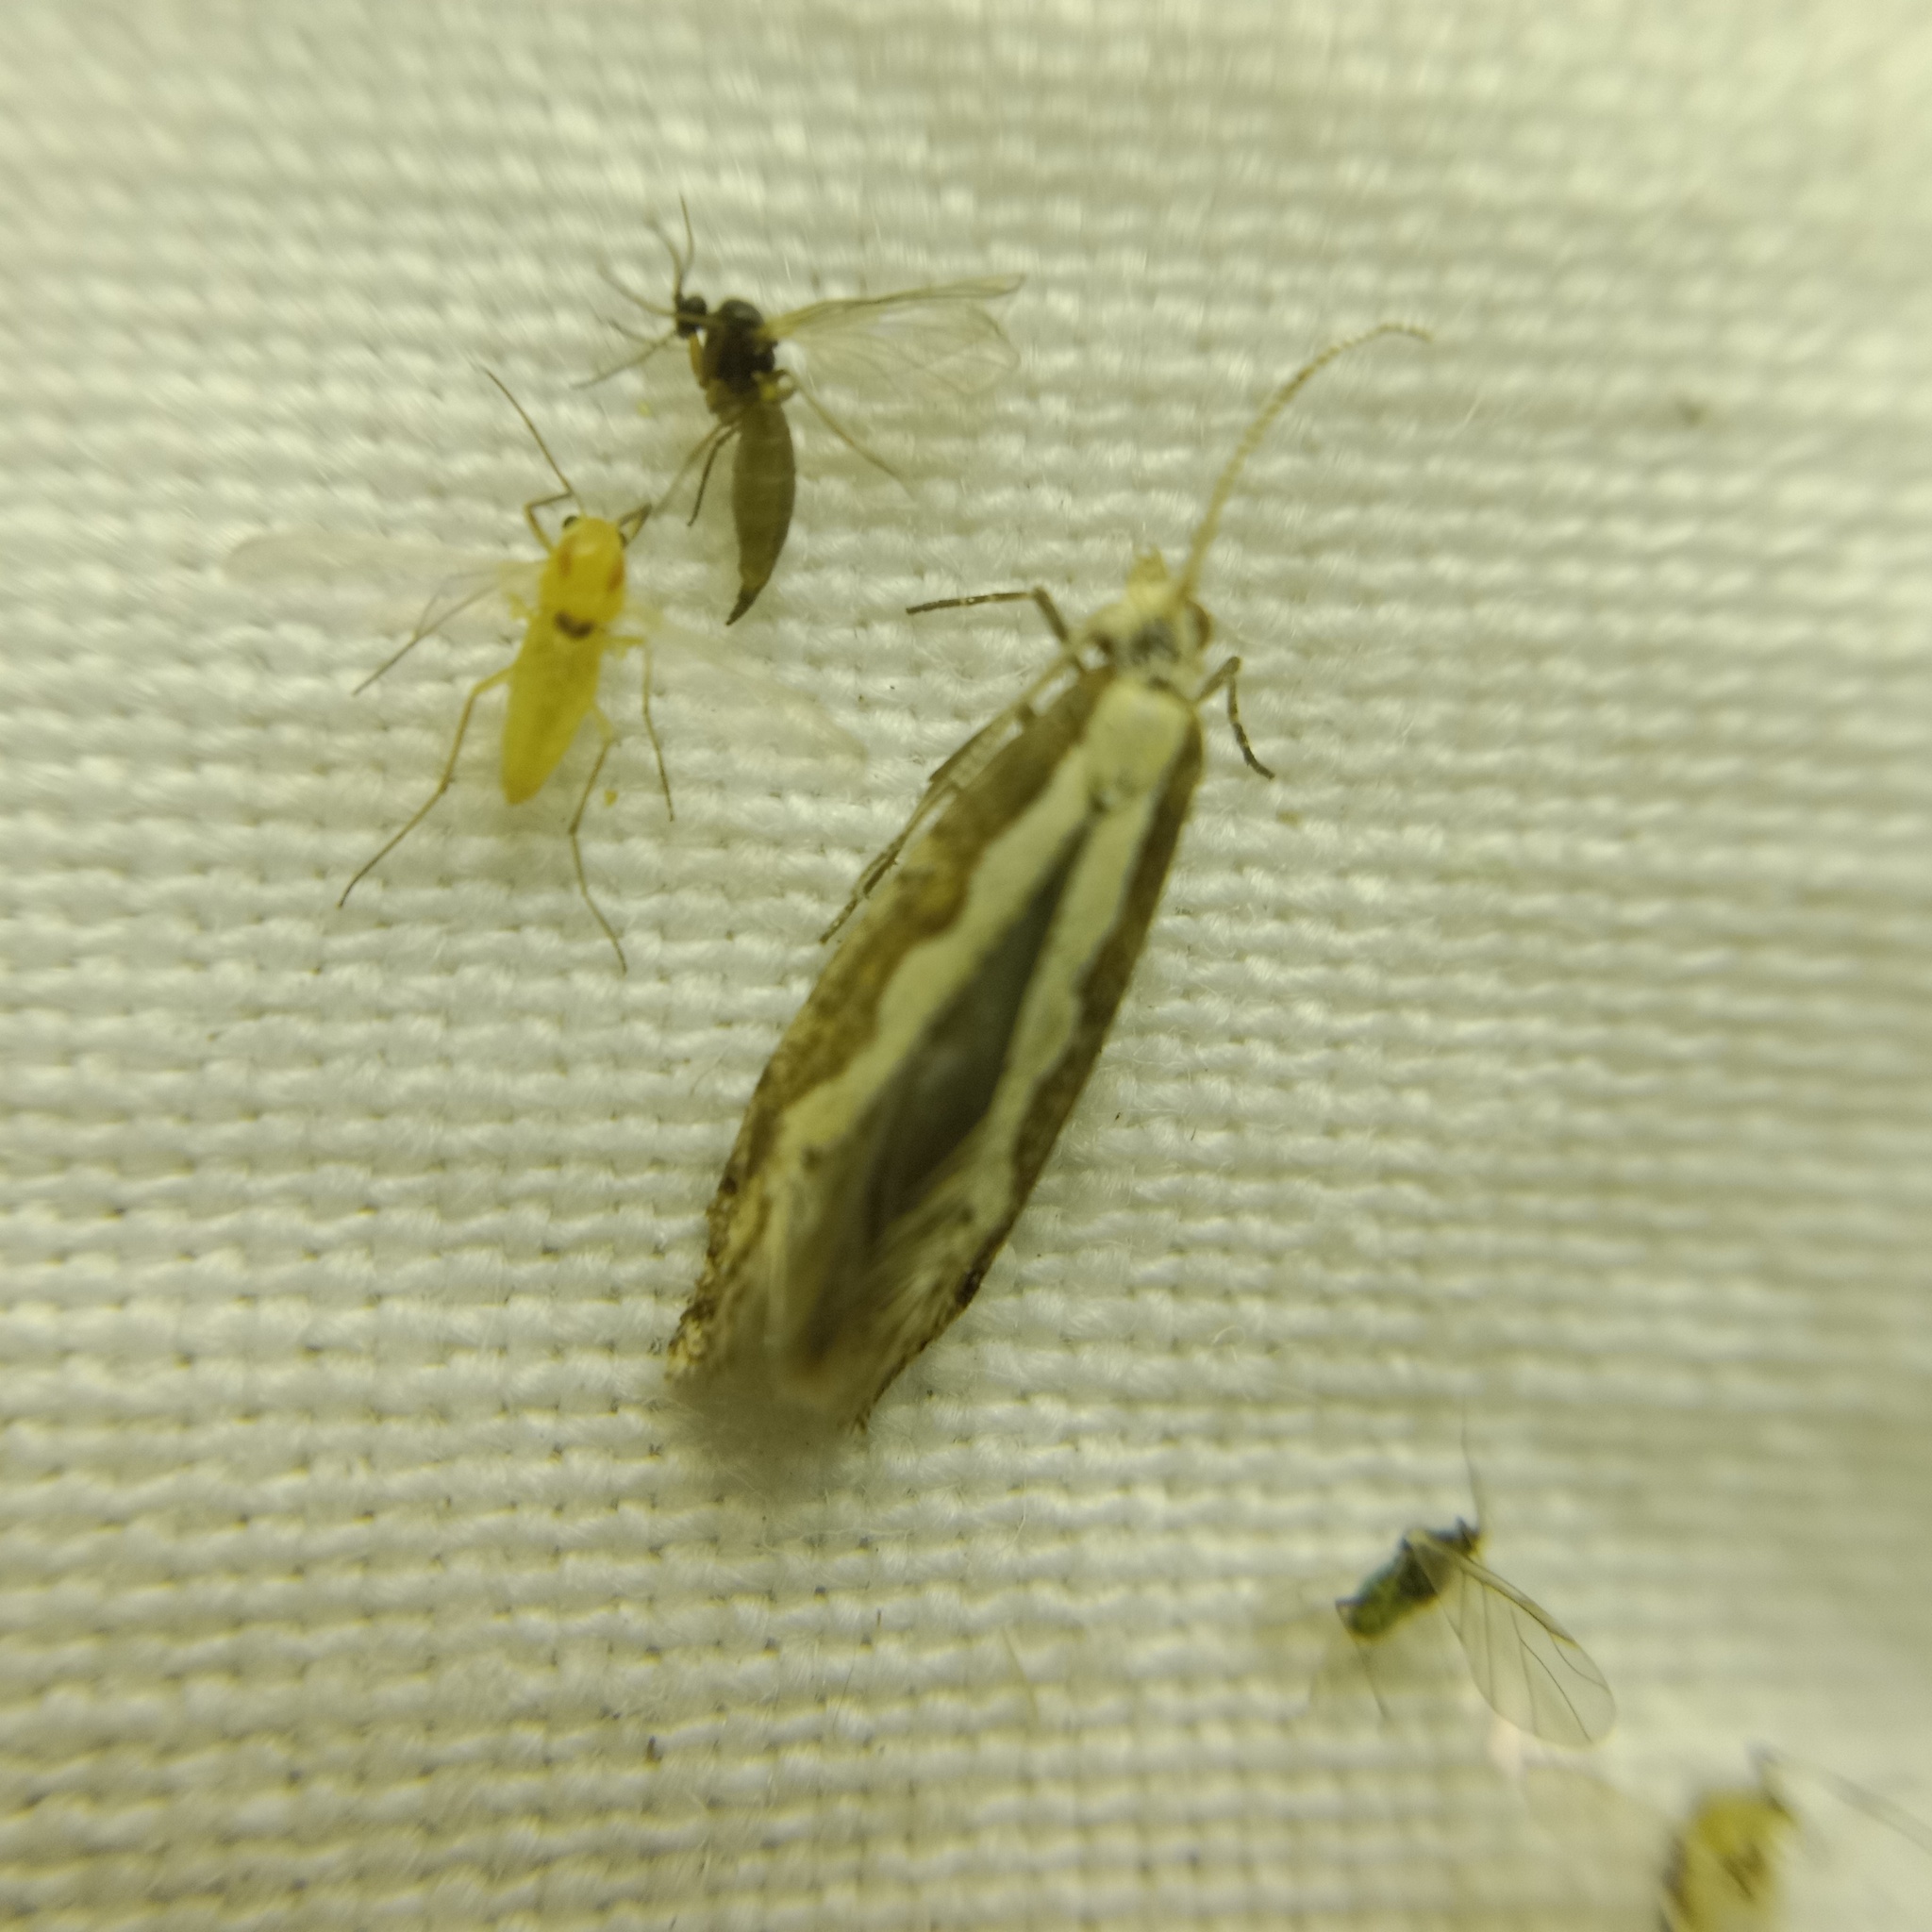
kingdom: Animalia
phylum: Arthropoda
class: Insecta
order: Lepidoptera
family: Plutellidae
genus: Plutella
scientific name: Plutella xylostella
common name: Diamond-back moth
